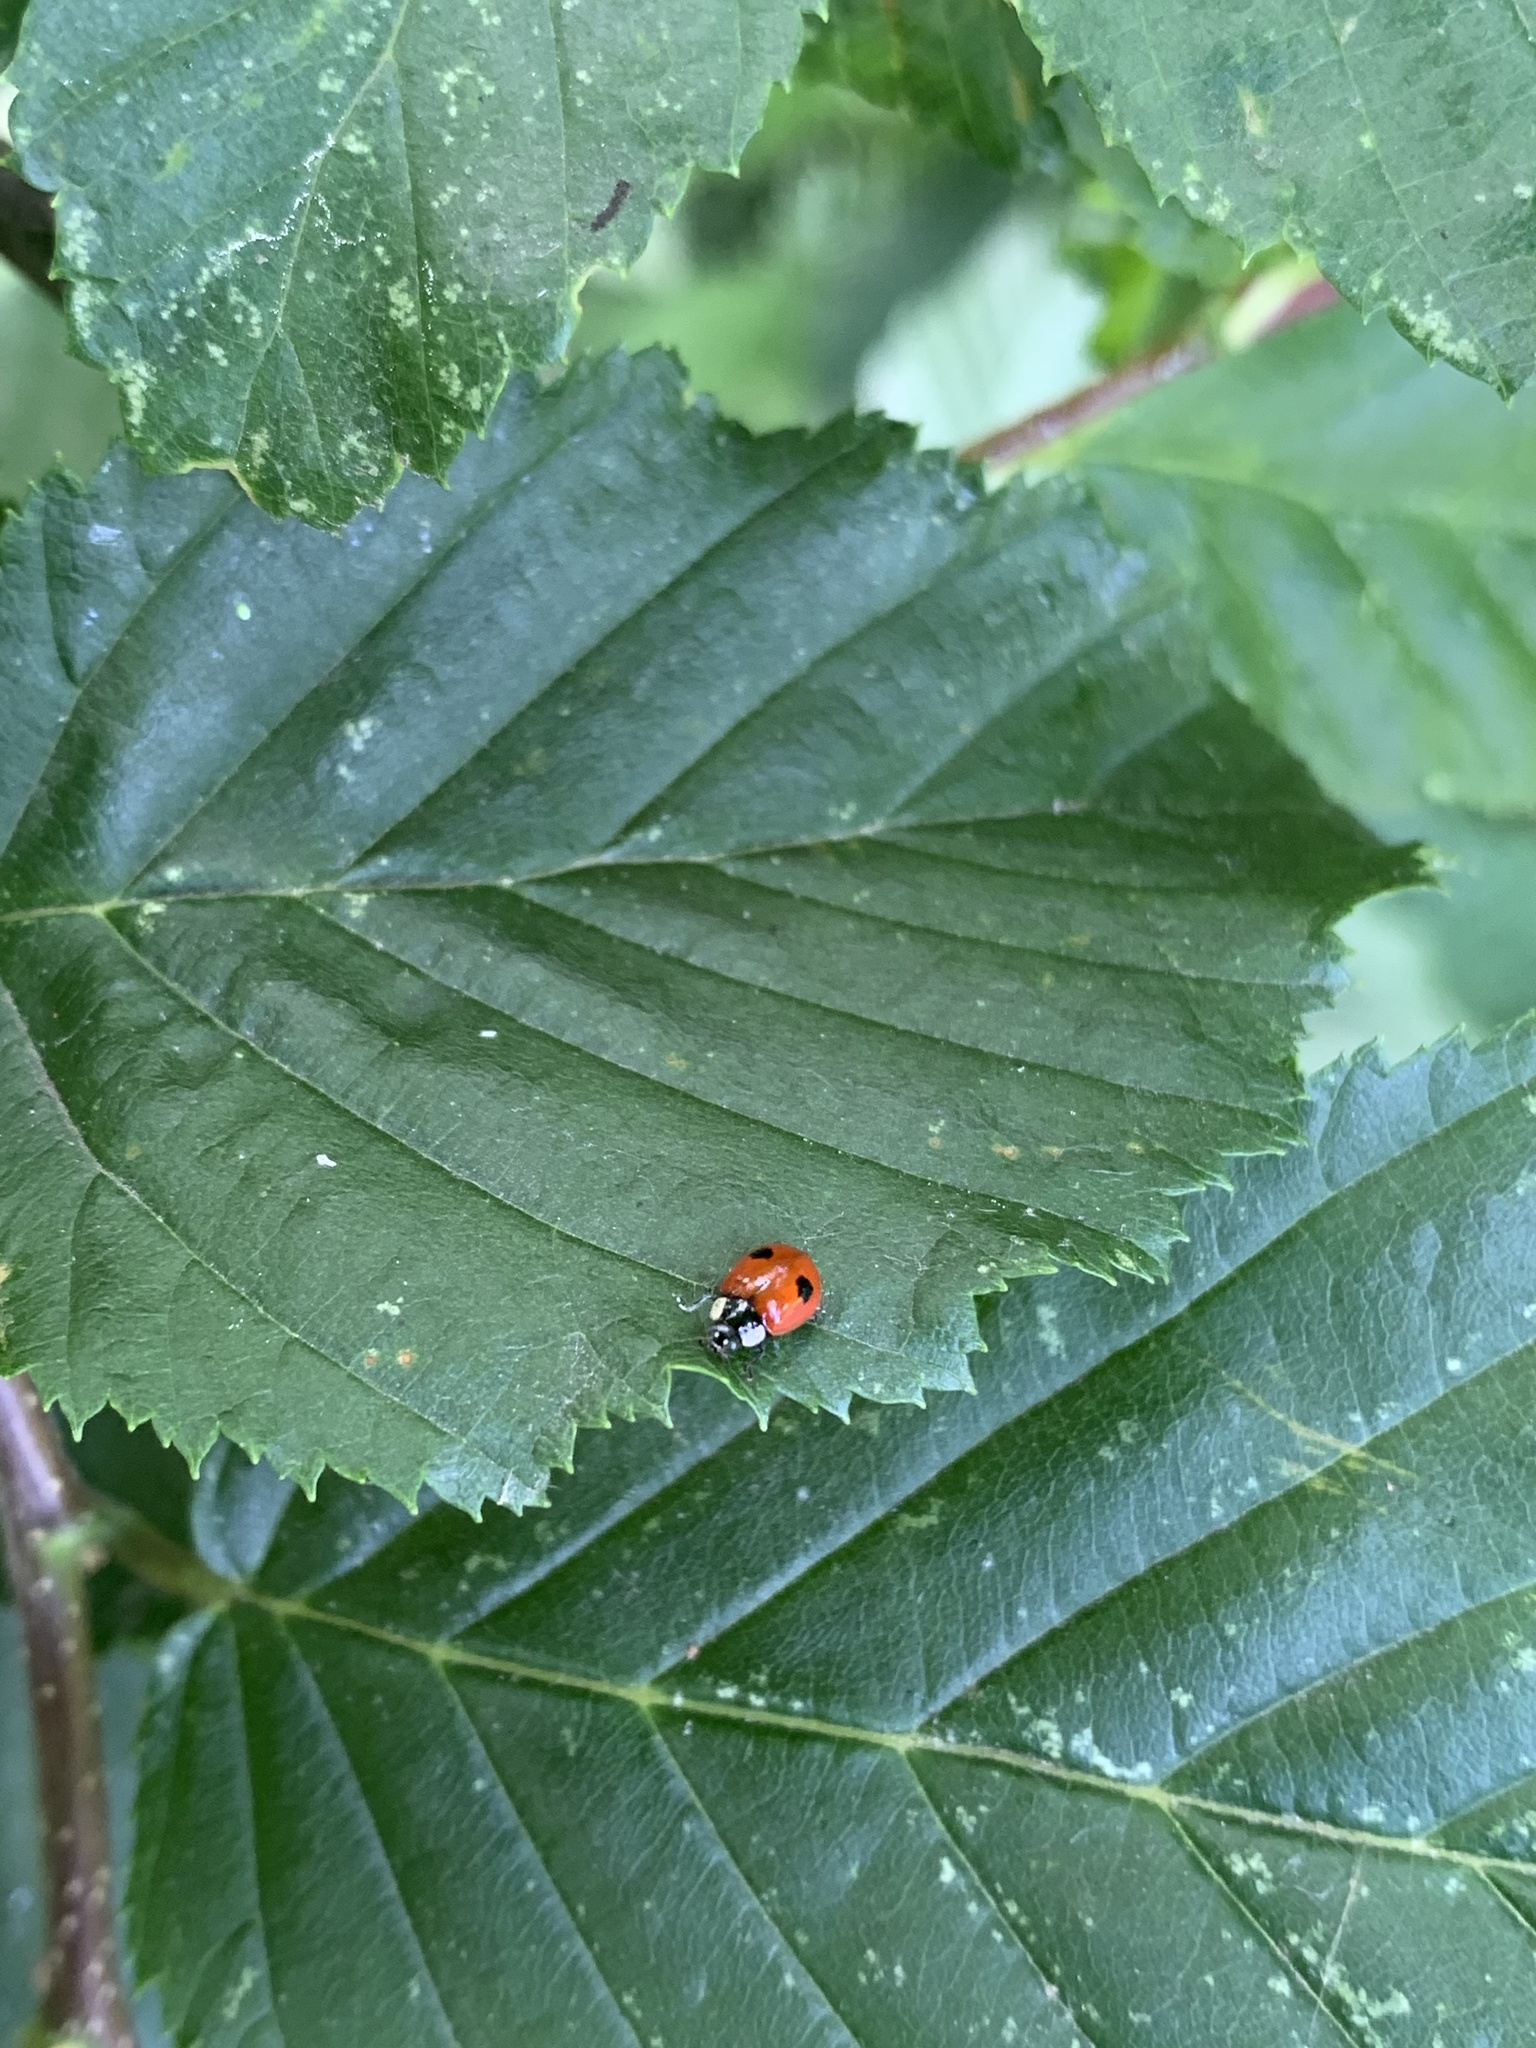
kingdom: Animalia
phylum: Arthropoda
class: Insecta
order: Coleoptera
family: Coccinellidae
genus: Adalia
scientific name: Adalia bipunctata
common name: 2-spot ladybird
